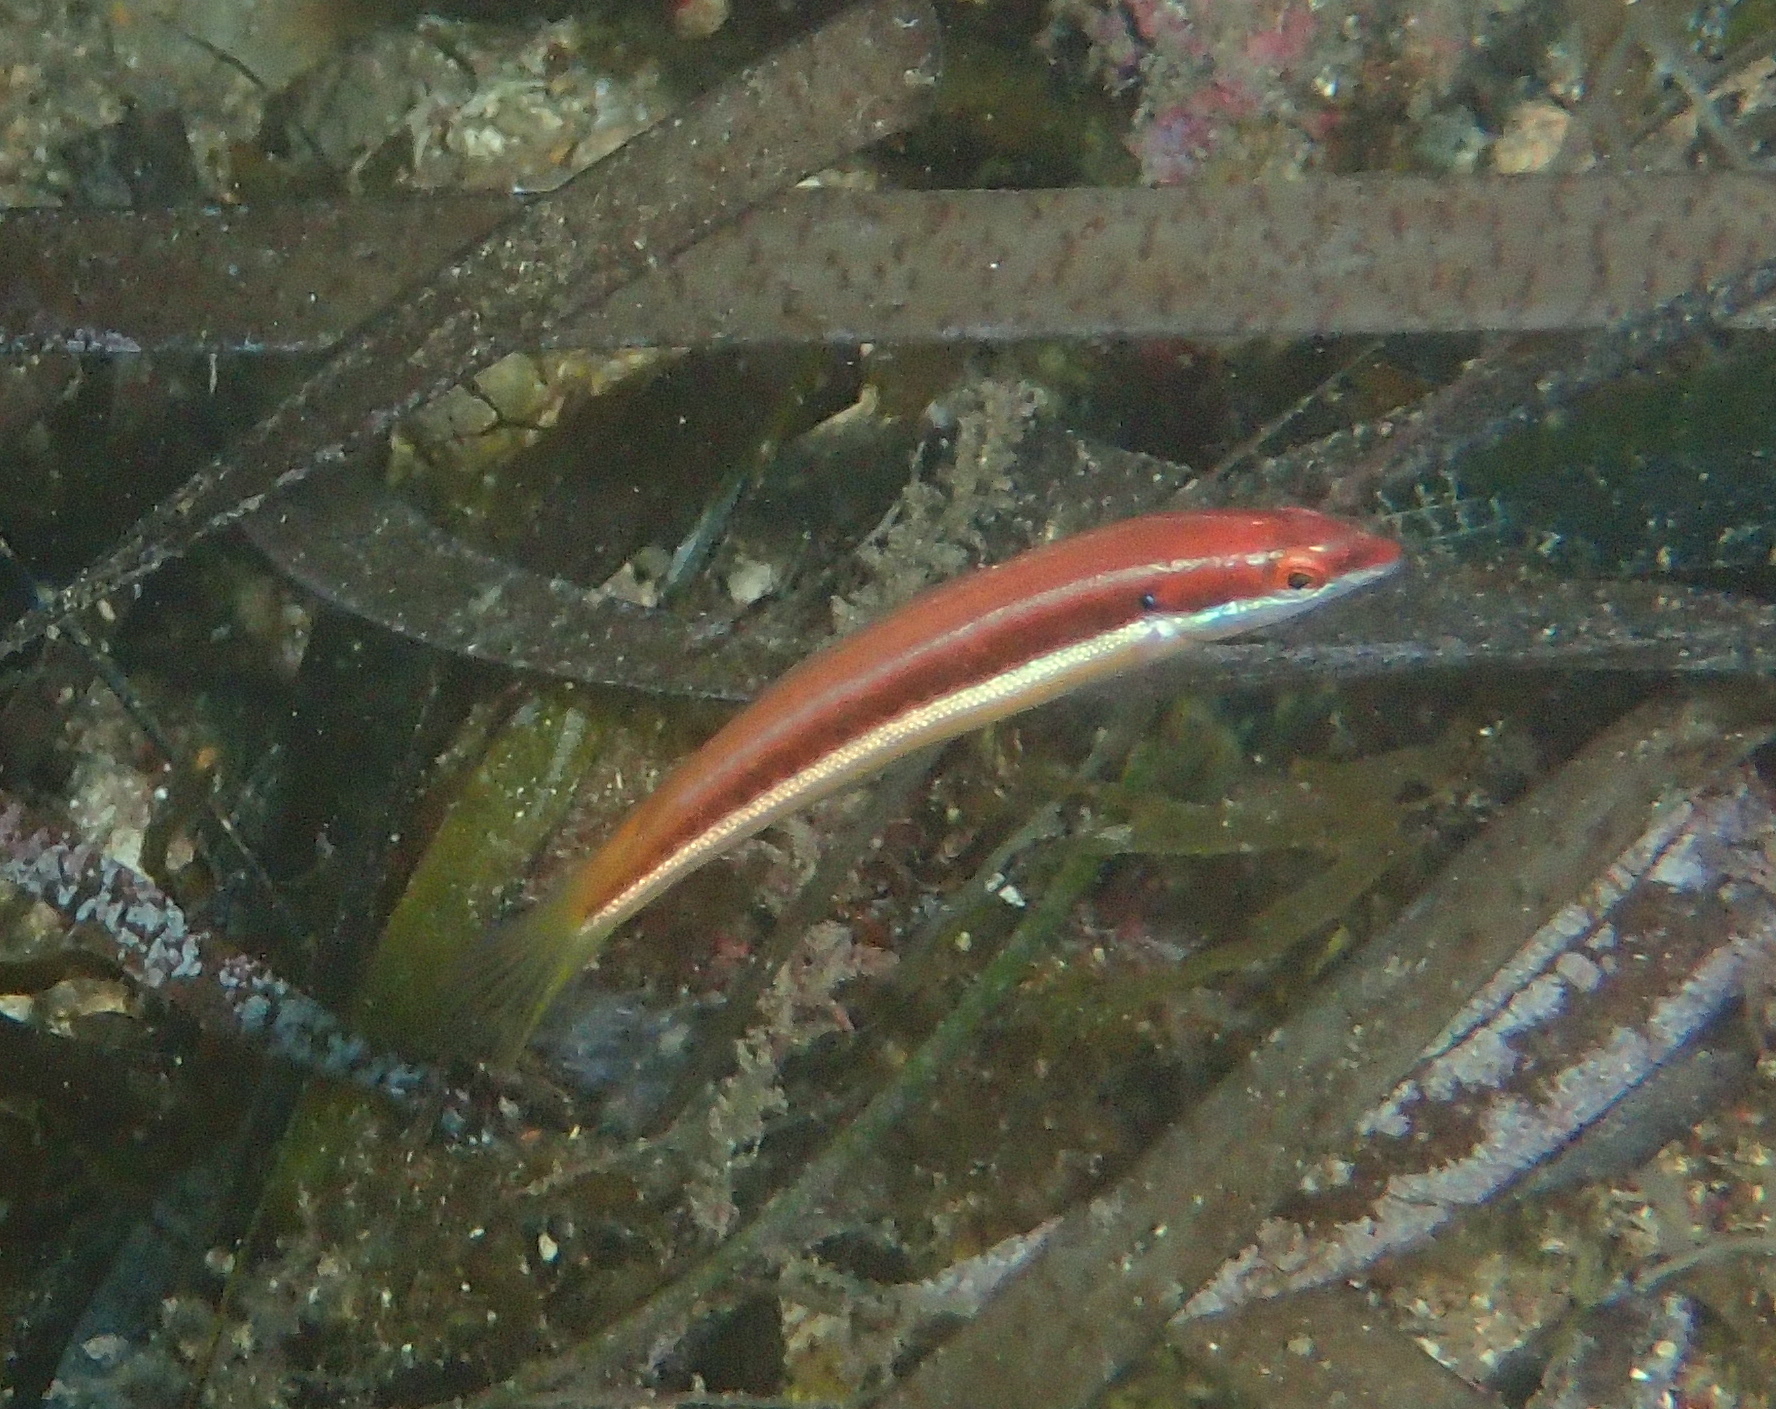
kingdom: Animalia
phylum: Chordata
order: Perciformes
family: Labridae
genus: Coris
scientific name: Coris julis
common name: Rainbow wrasse
